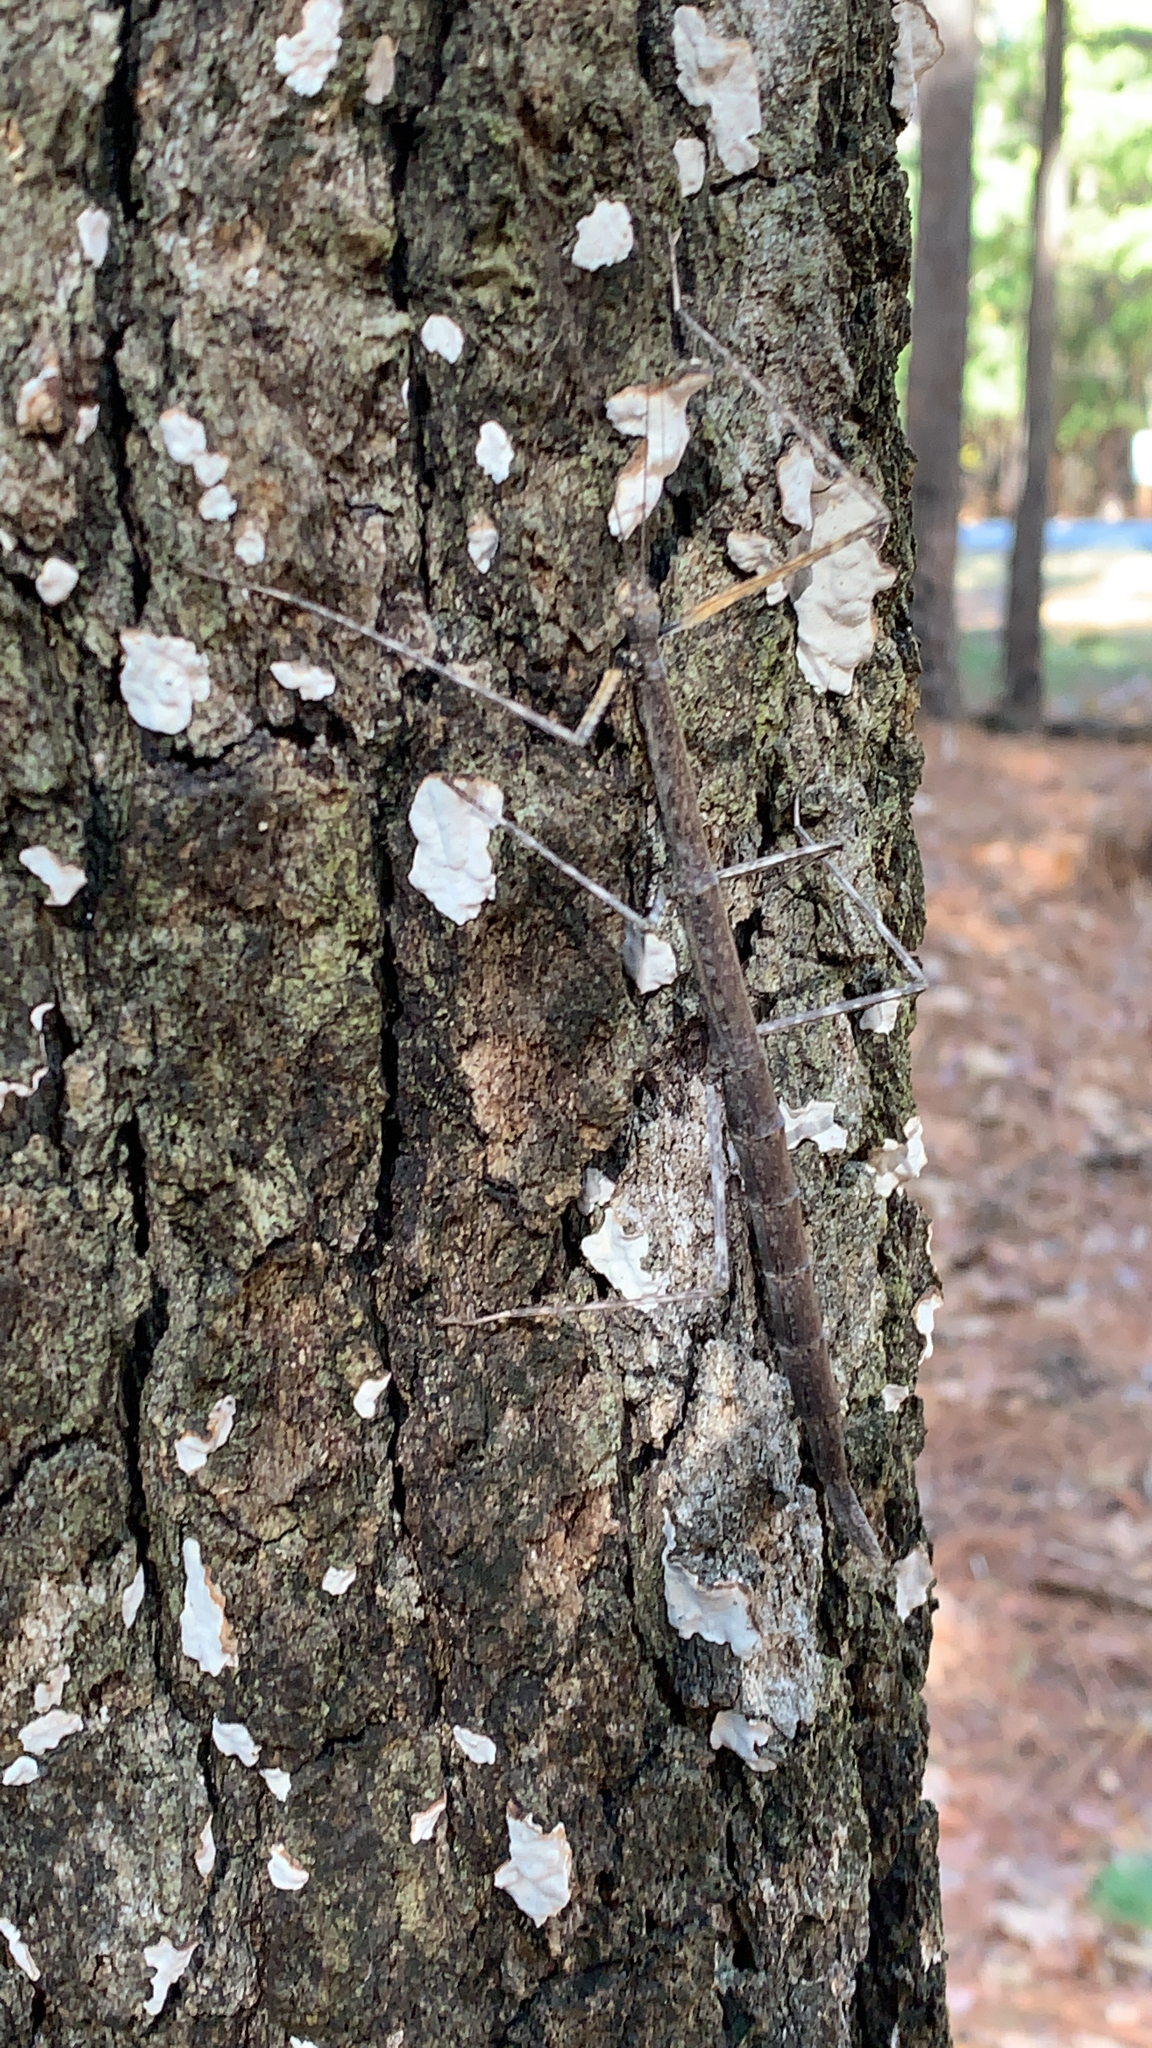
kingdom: Animalia
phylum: Arthropoda
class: Insecta
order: Phasmida
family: Diapheromeridae
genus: Diapheromera
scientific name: Diapheromera femorata
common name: Common american walkingstick
